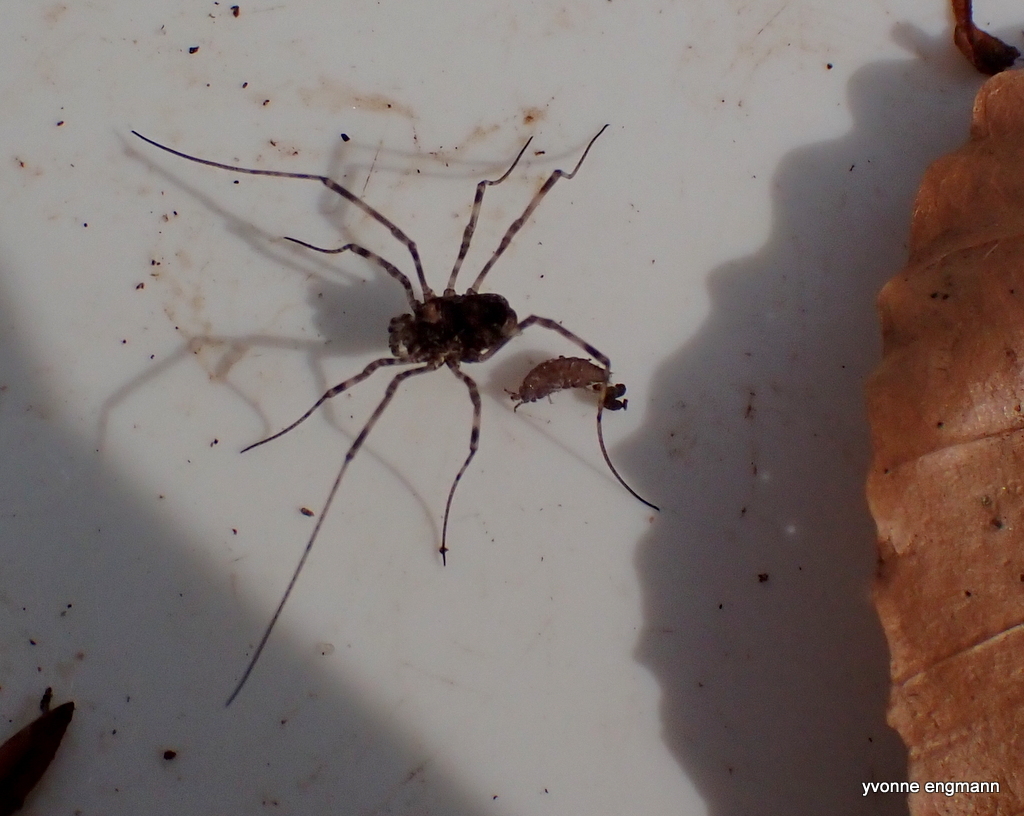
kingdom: Animalia
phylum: Arthropoda
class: Arachnida
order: Opiliones
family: Phalangiidae
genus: Platybunus
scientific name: Platybunus pinetorum
